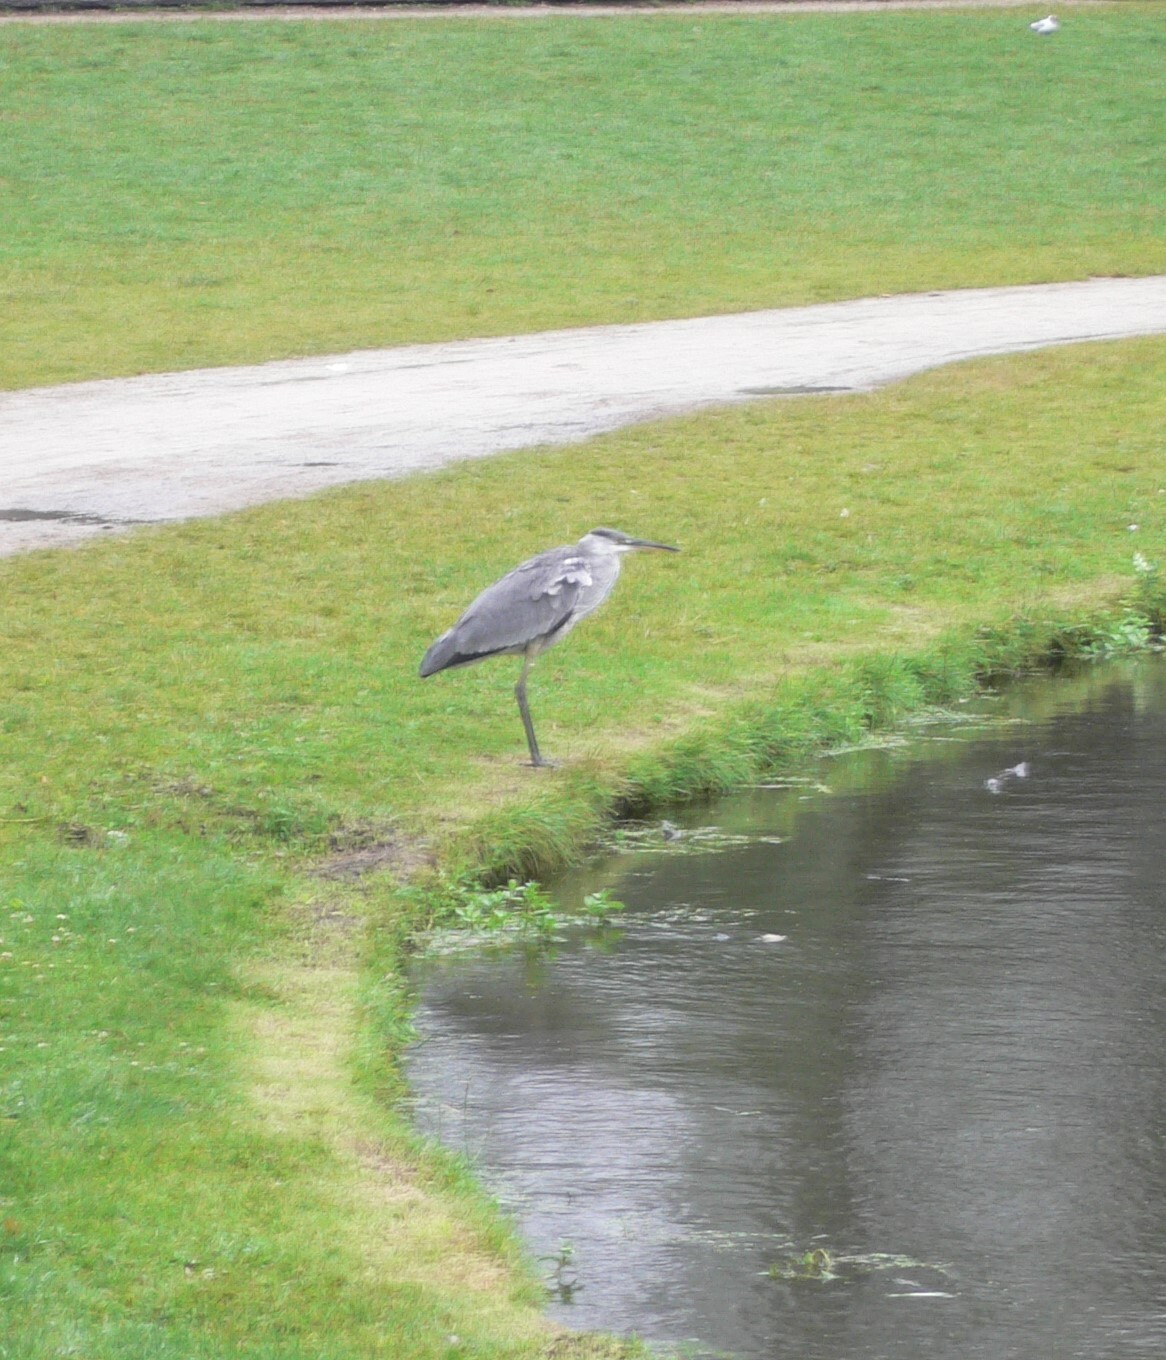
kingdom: Animalia
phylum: Chordata
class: Aves
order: Pelecaniformes
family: Ardeidae
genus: Ardea
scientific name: Ardea cinerea
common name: Grey heron
